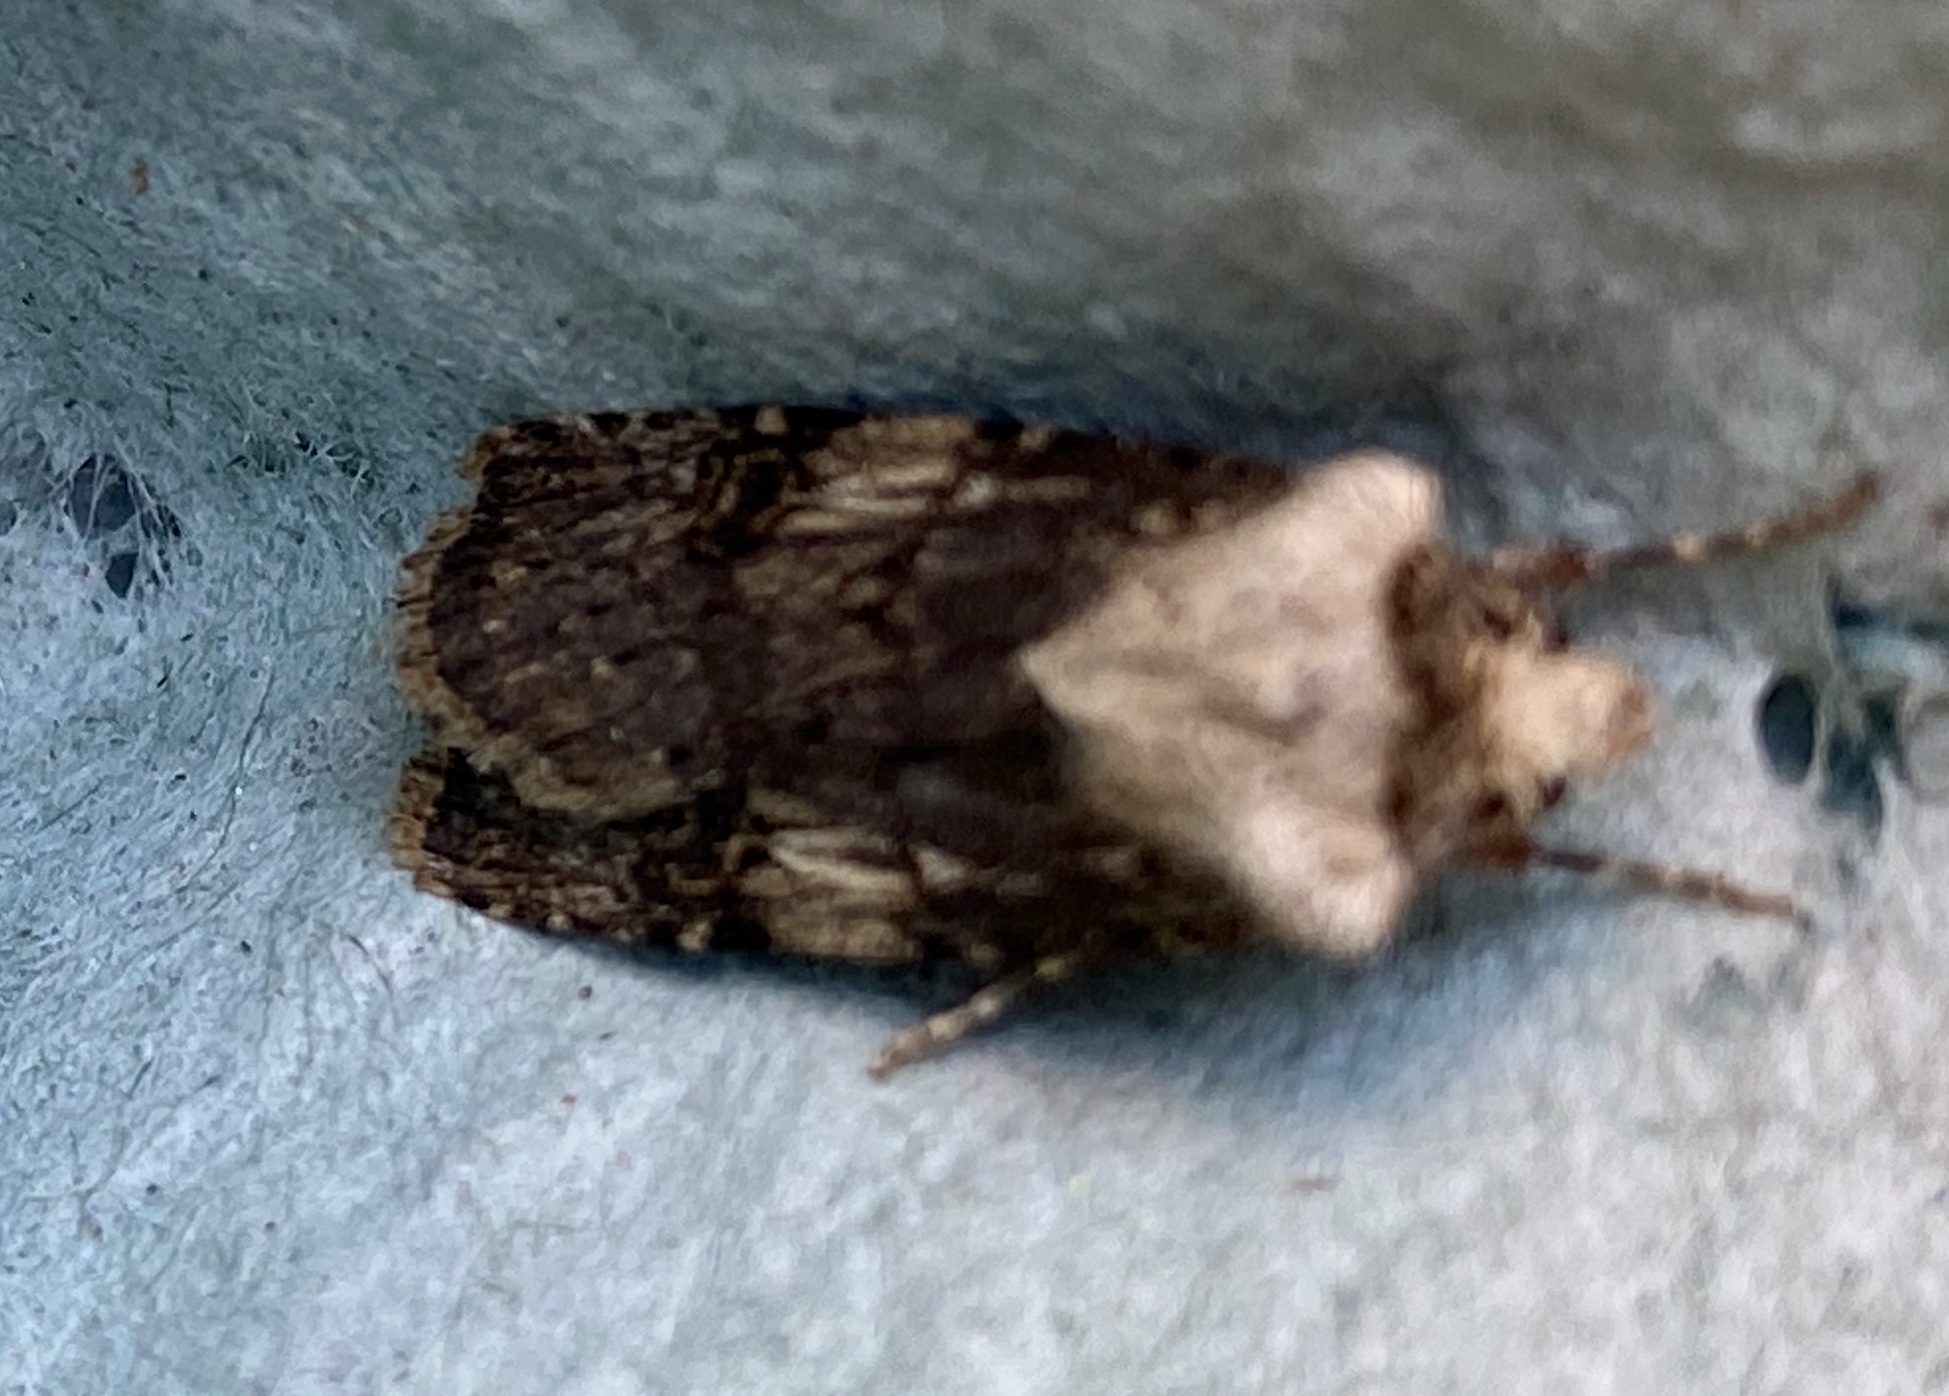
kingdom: Animalia
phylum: Arthropoda
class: Insecta
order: Lepidoptera
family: Noctuidae
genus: Agrotis
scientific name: Agrotis puta
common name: Shuttle-shaped dart
